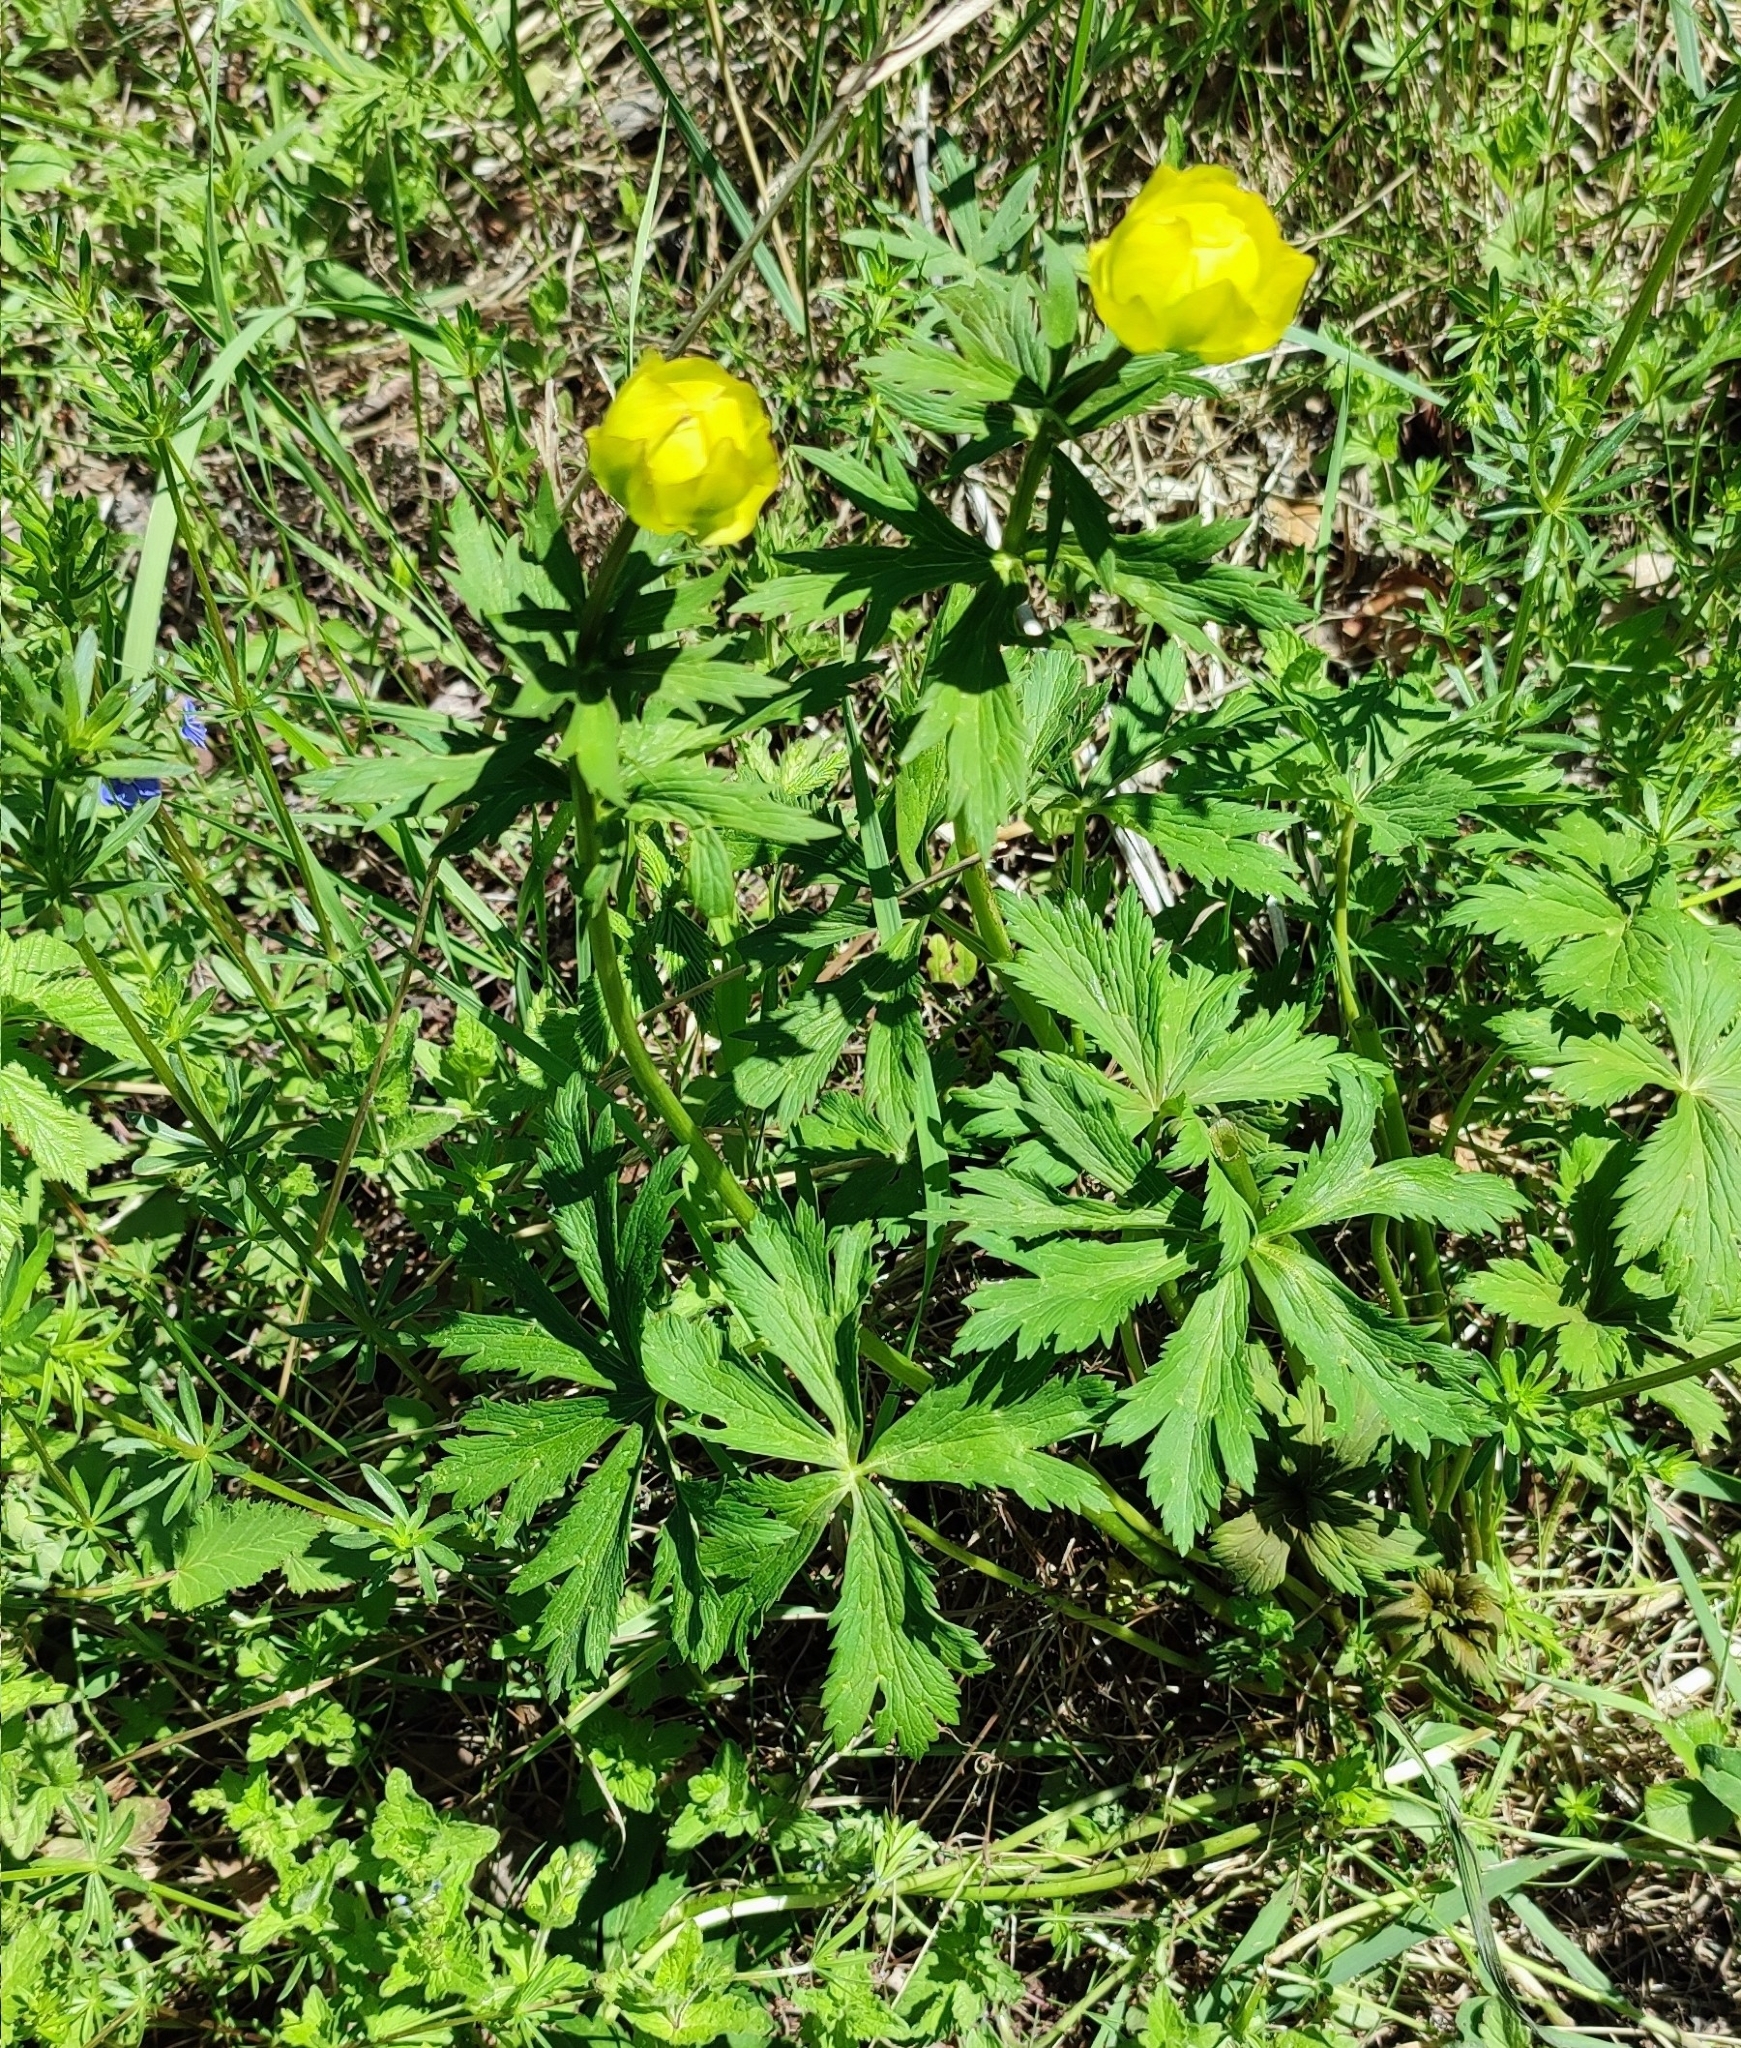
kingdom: Plantae
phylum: Tracheophyta
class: Magnoliopsida
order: Ranunculales
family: Ranunculaceae
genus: Trollius
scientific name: Trollius europaeus
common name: European globeflower
